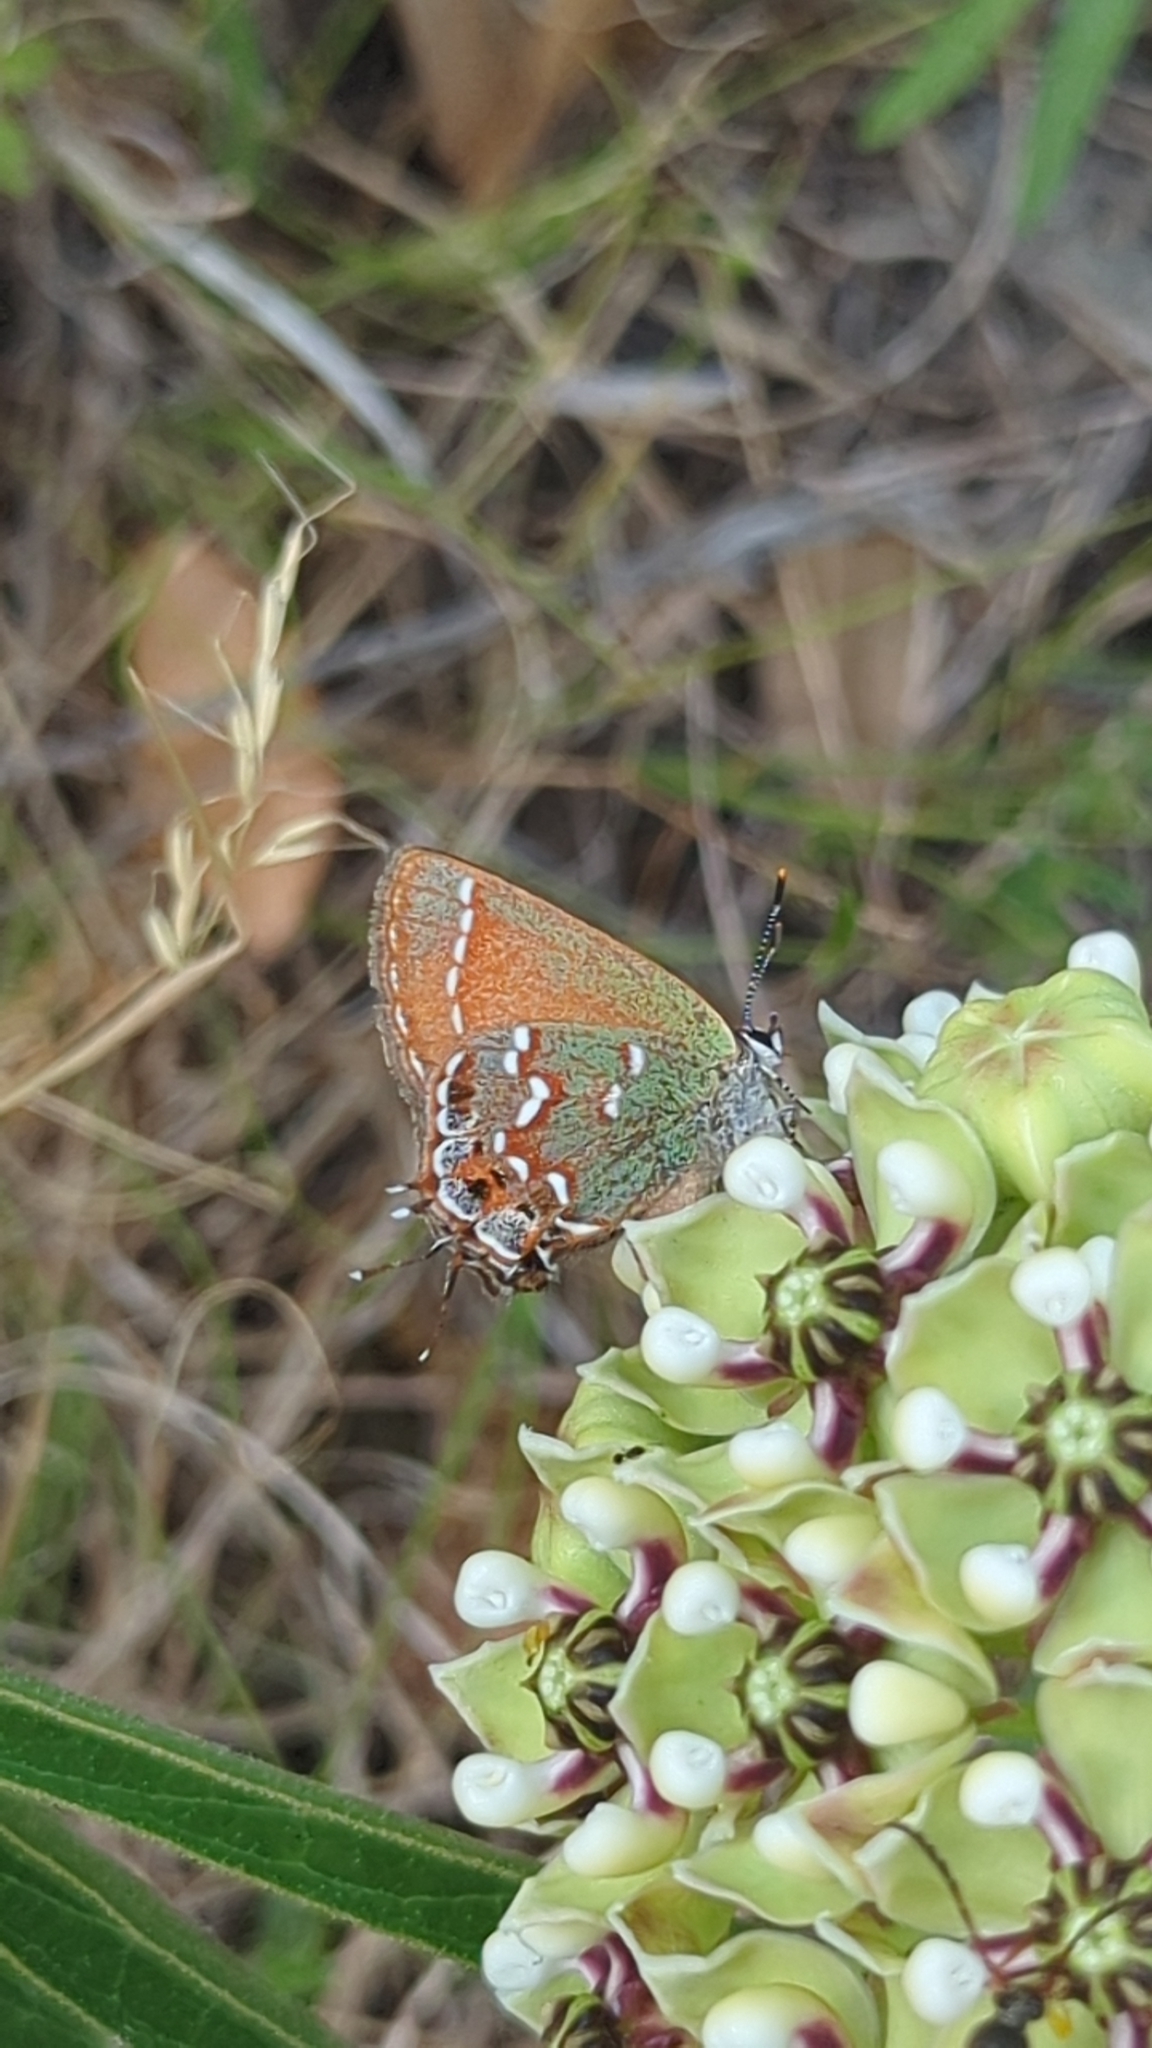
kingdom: Animalia
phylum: Arthropoda
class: Insecta
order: Lepidoptera
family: Lycaenidae
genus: Mitoura
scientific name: Mitoura gryneus
